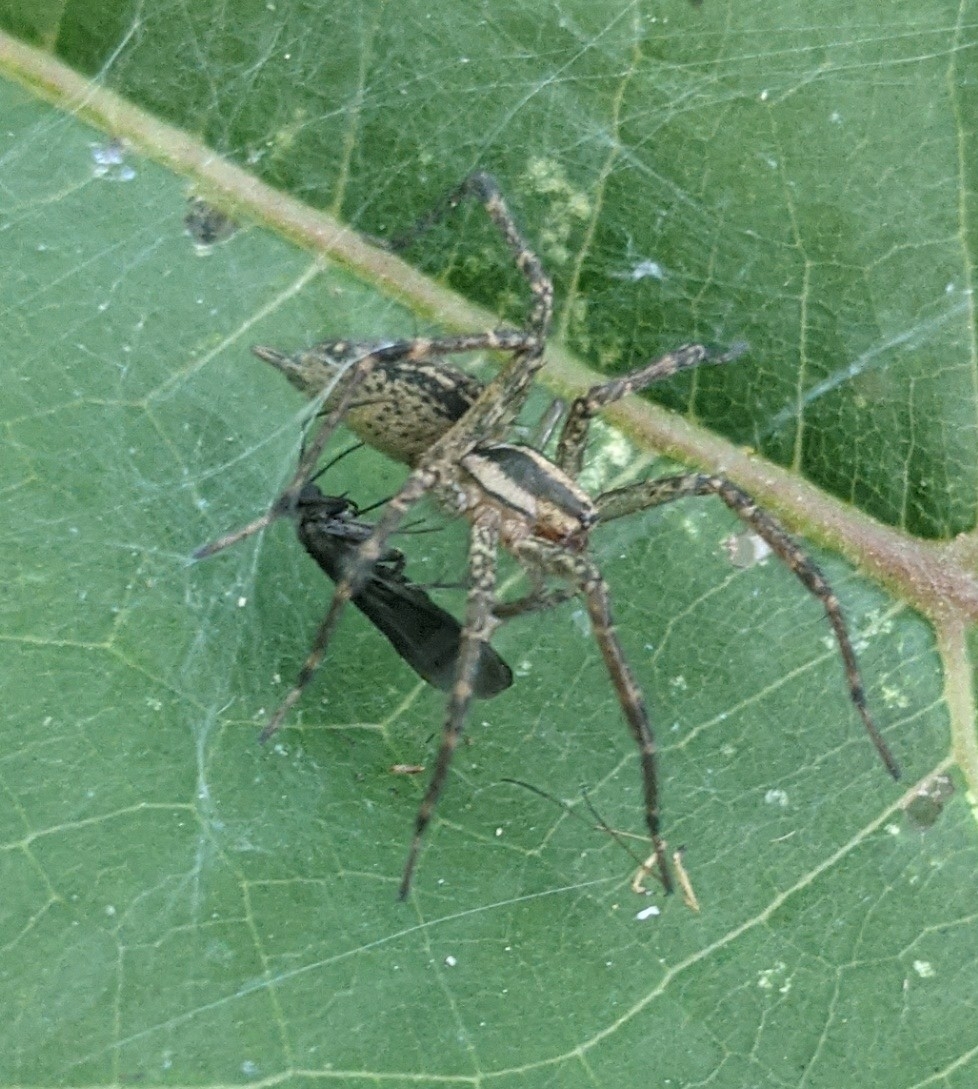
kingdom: Animalia
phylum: Arthropoda
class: Arachnida
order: Araneae
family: Agelenidae
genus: Agelenopsis
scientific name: Agelenopsis
